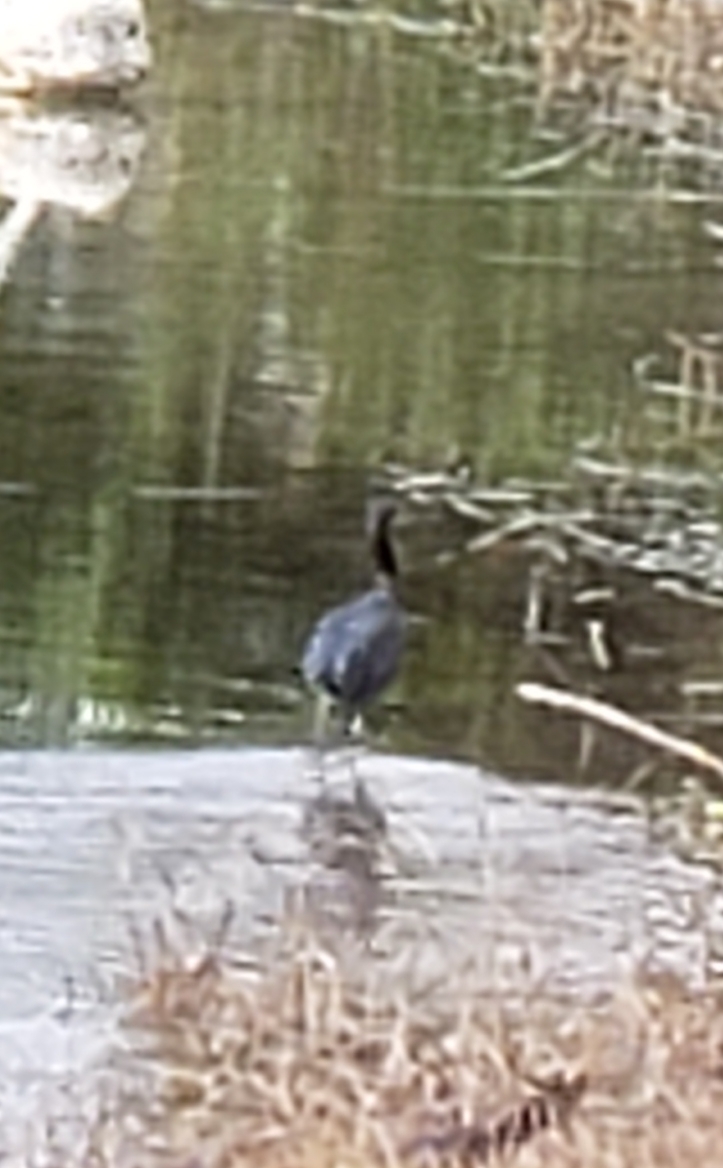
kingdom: Animalia
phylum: Chordata
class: Aves
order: Pelecaniformes
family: Ardeidae
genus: Egretta
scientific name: Egretta caerulea
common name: Little blue heron
